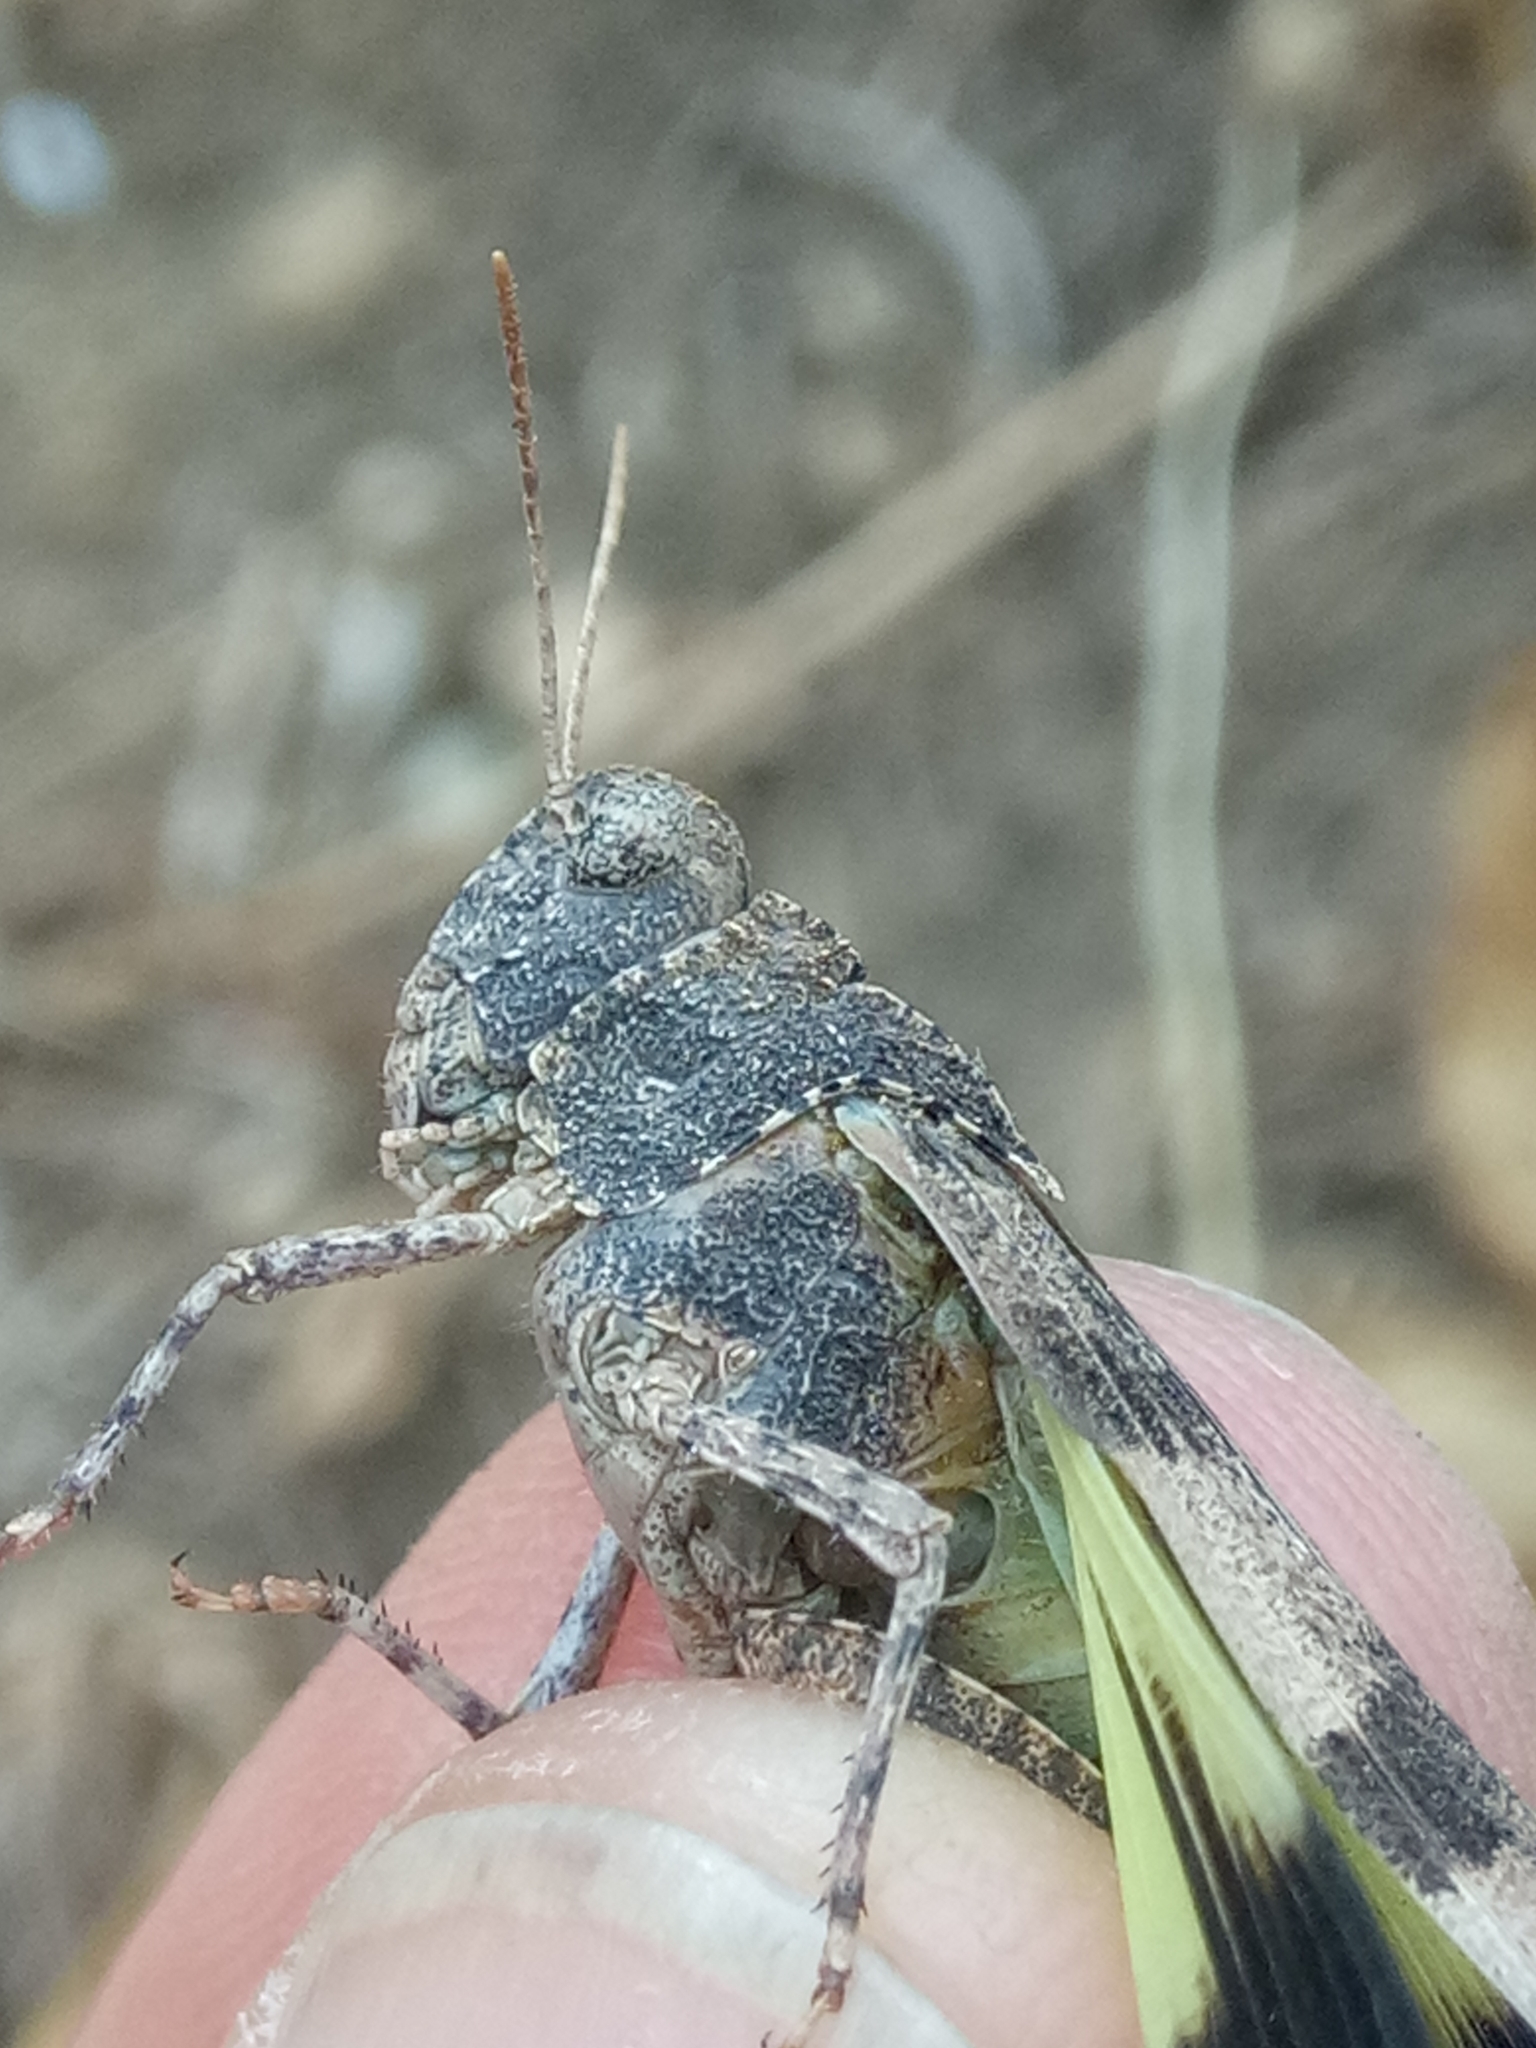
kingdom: Animalia
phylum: Arthropoda
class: Insecta
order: Orthoptera
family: Acrididae
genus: Oedipoda
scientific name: Oedipoda caerulescens
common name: Blue-winged grasshopper
